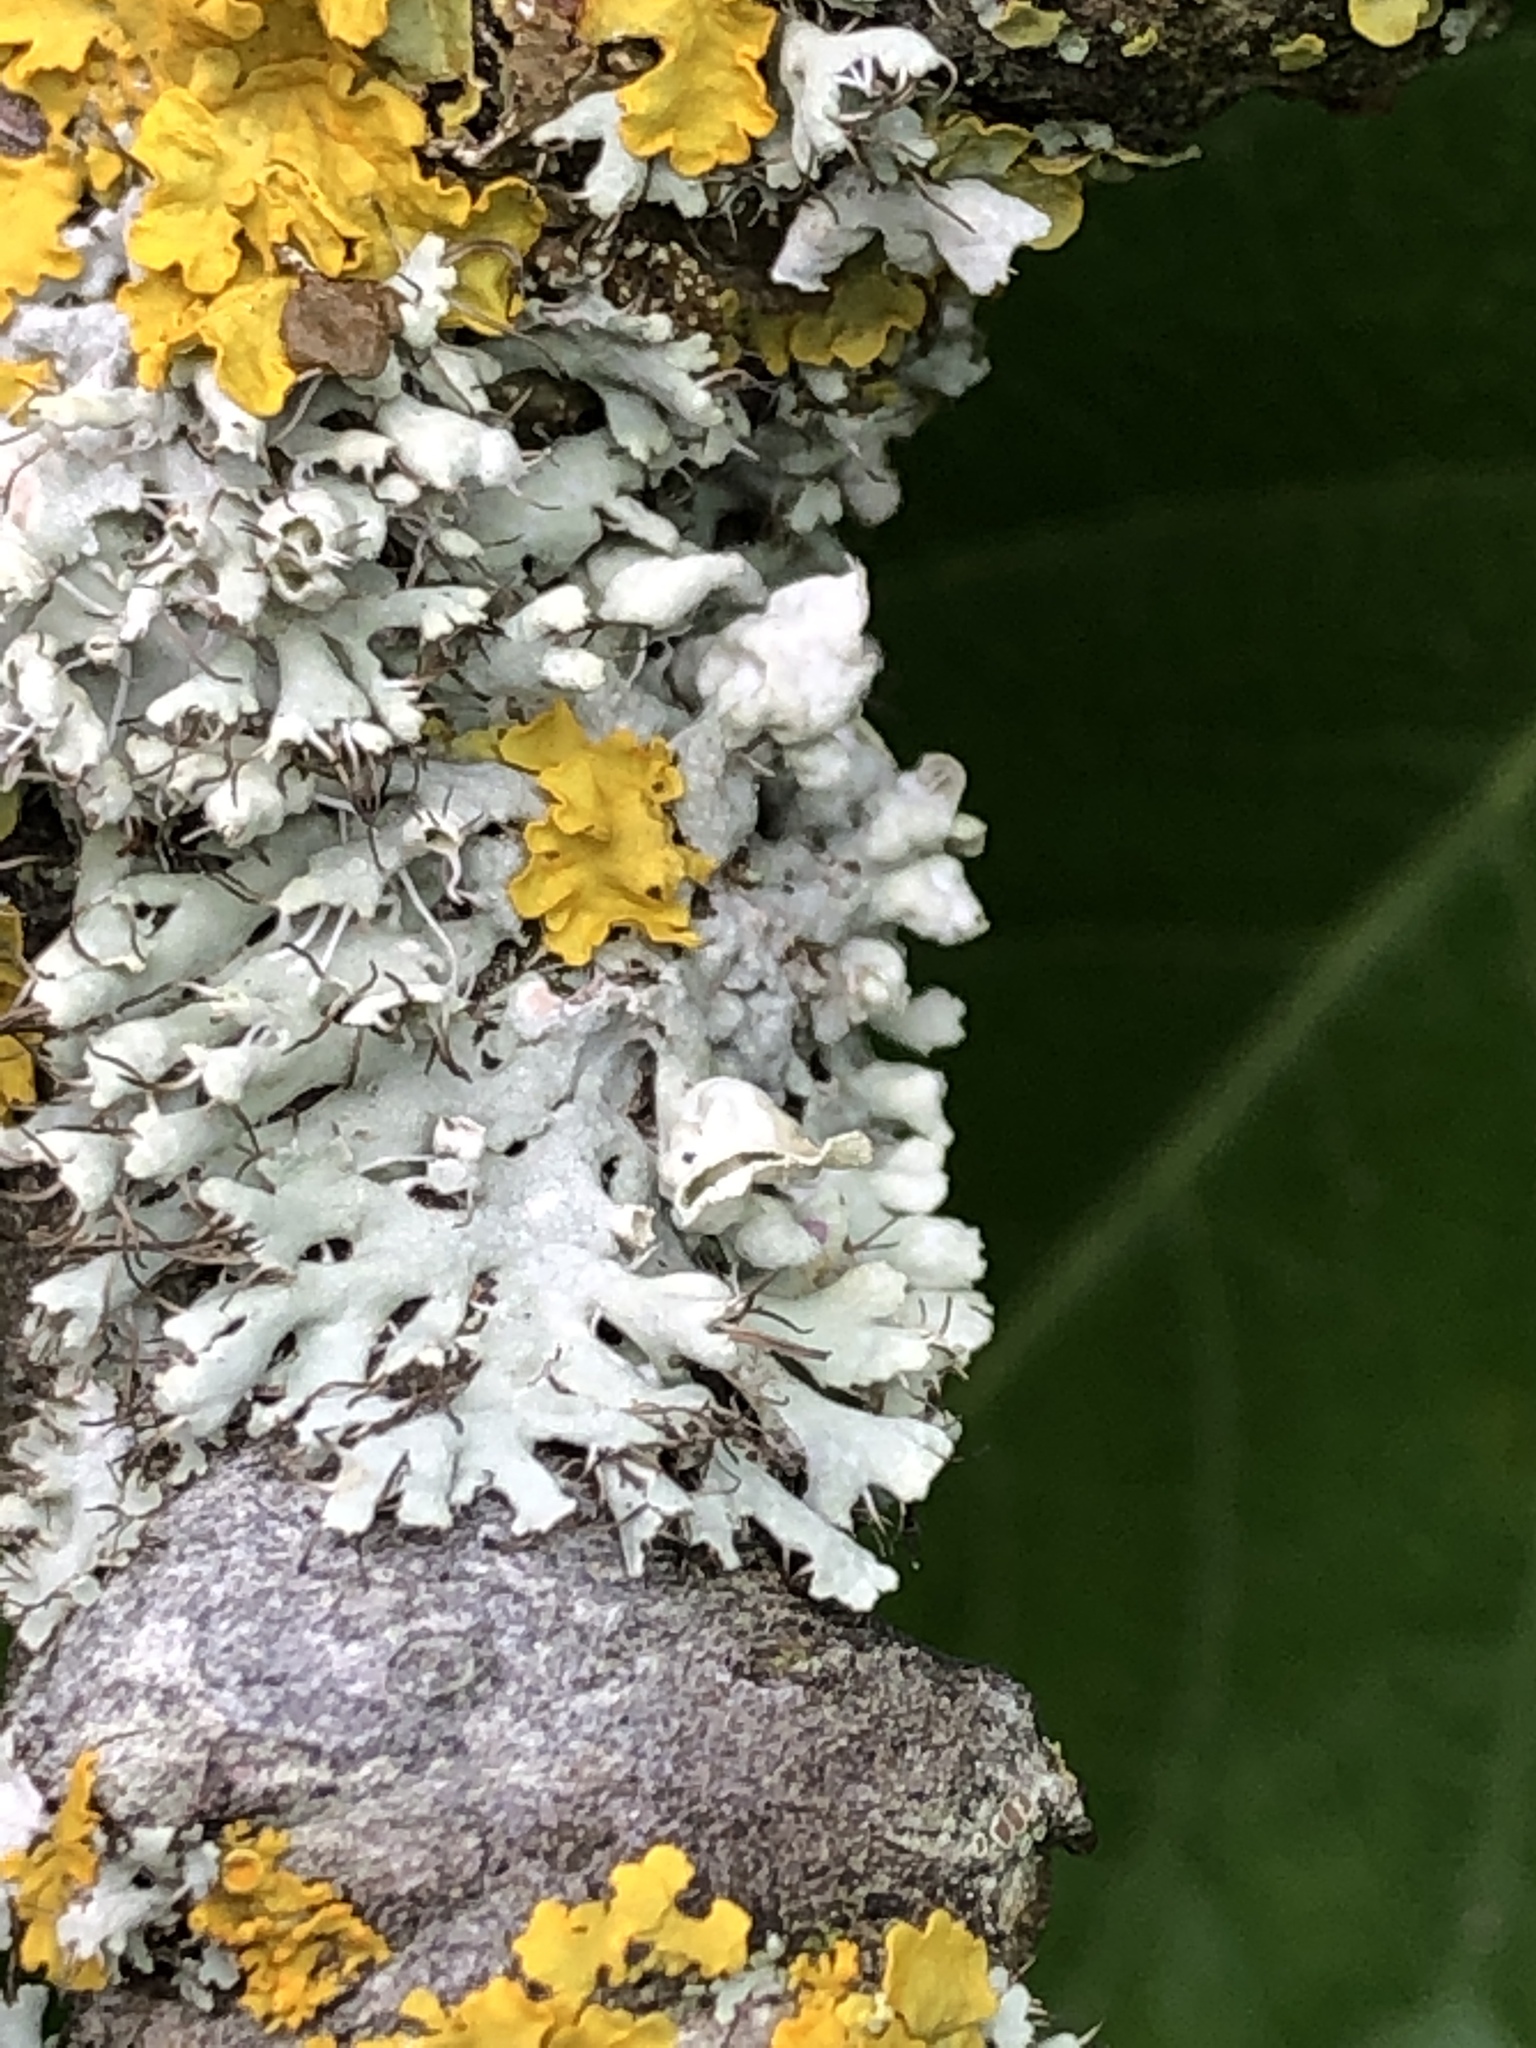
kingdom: Fungi
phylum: Ascomycota
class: Lecanoromycetes
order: Caliciales
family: Physciaceae
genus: Physcia
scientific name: Physcia adscendens
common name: Hooded rosette lichen
